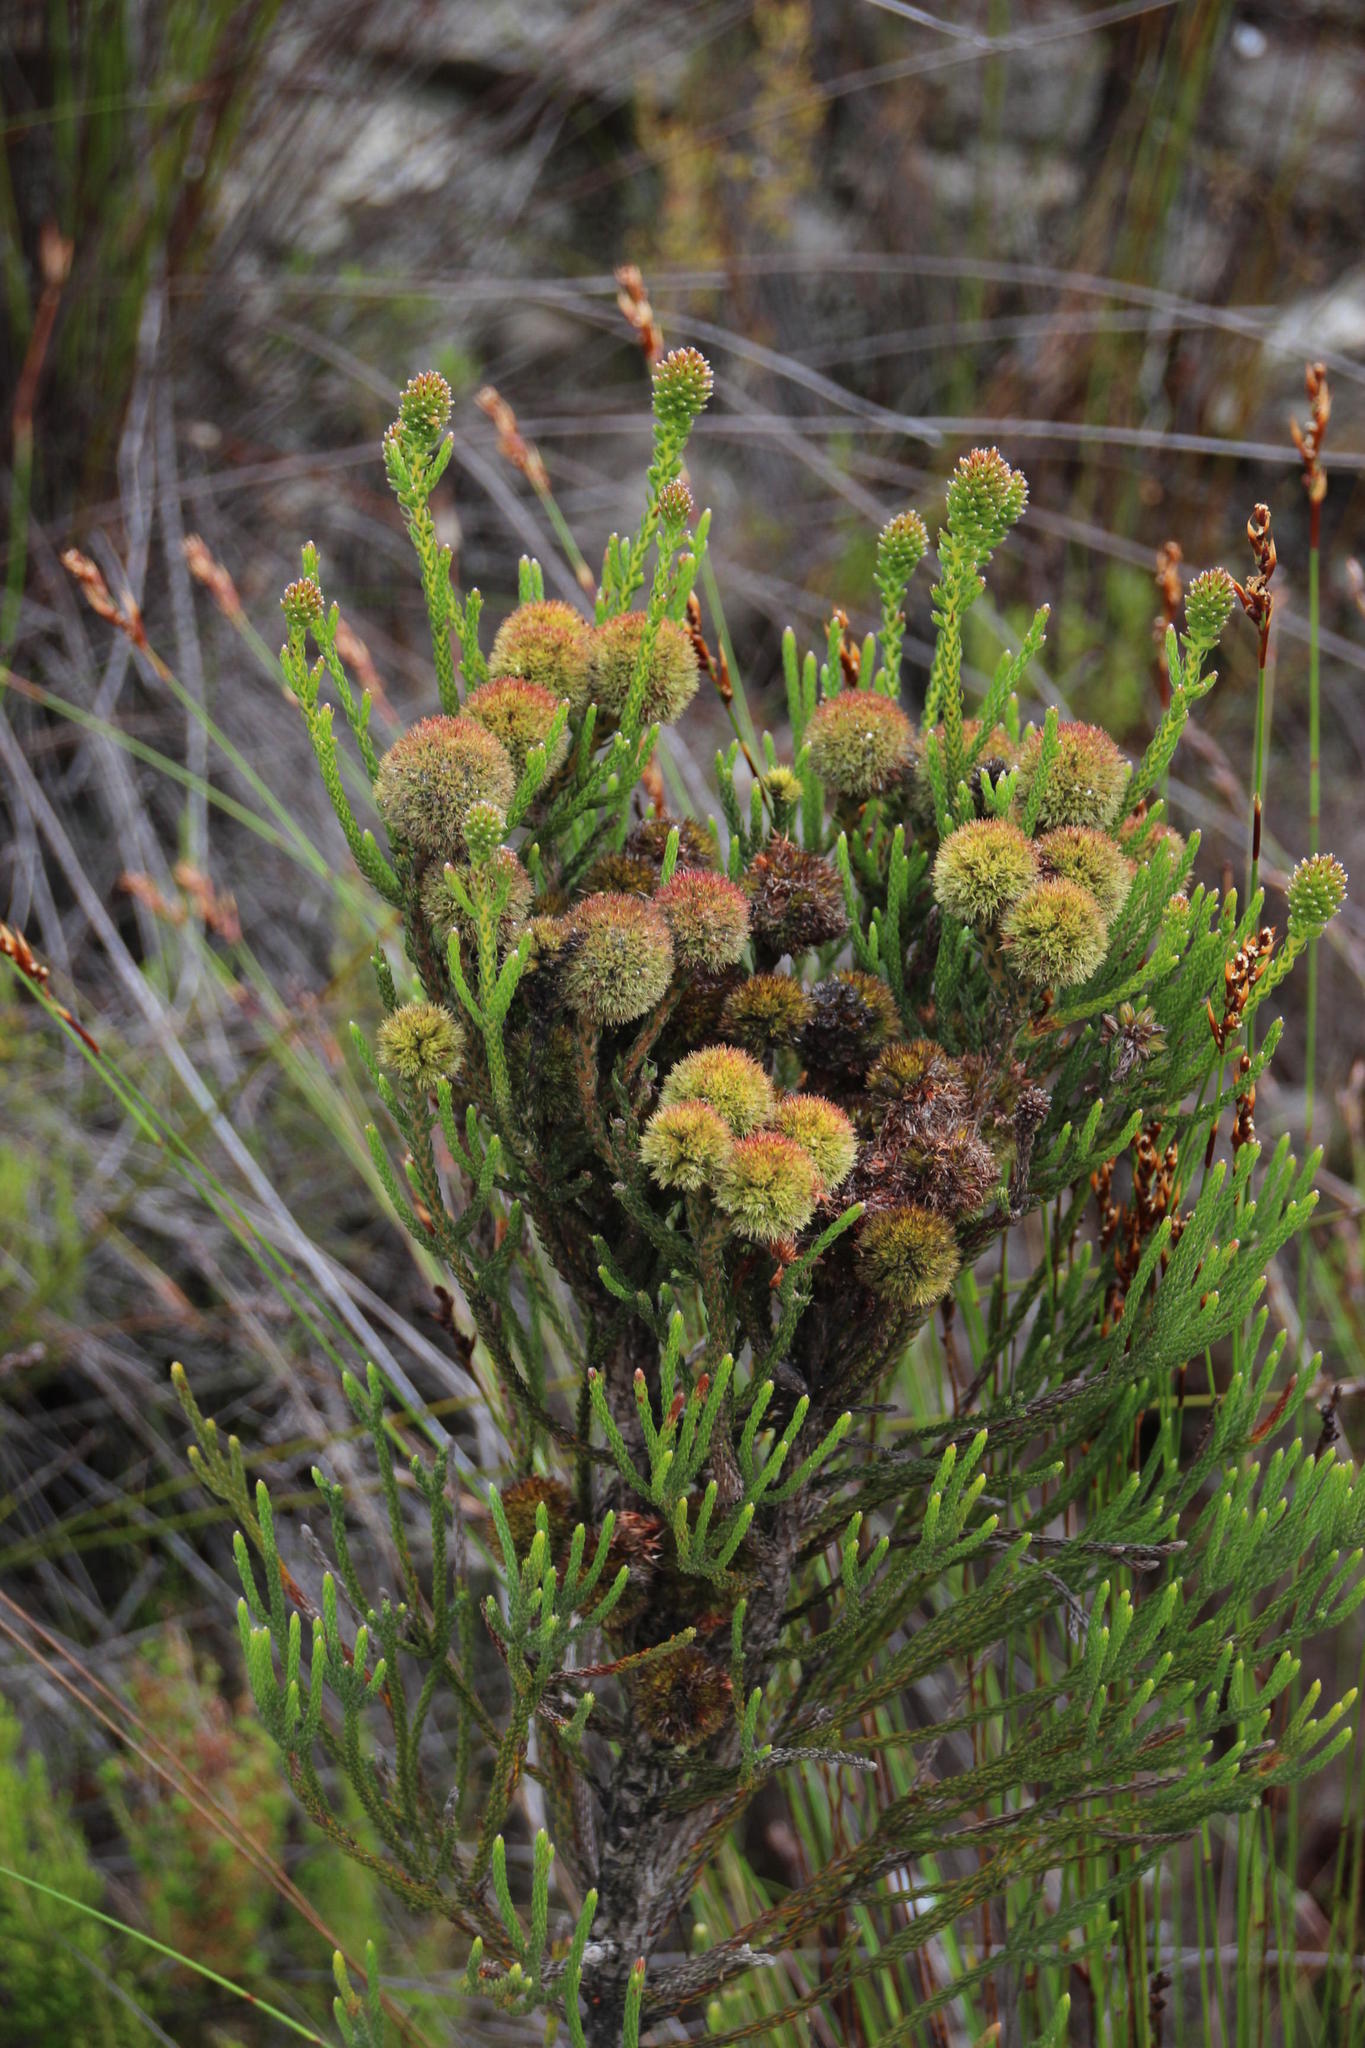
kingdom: Plantae
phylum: Tracheophyta
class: Magnoliopsida
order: Bruniales
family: Bruniaceae
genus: Brunia
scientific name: Brunia fragarioides
